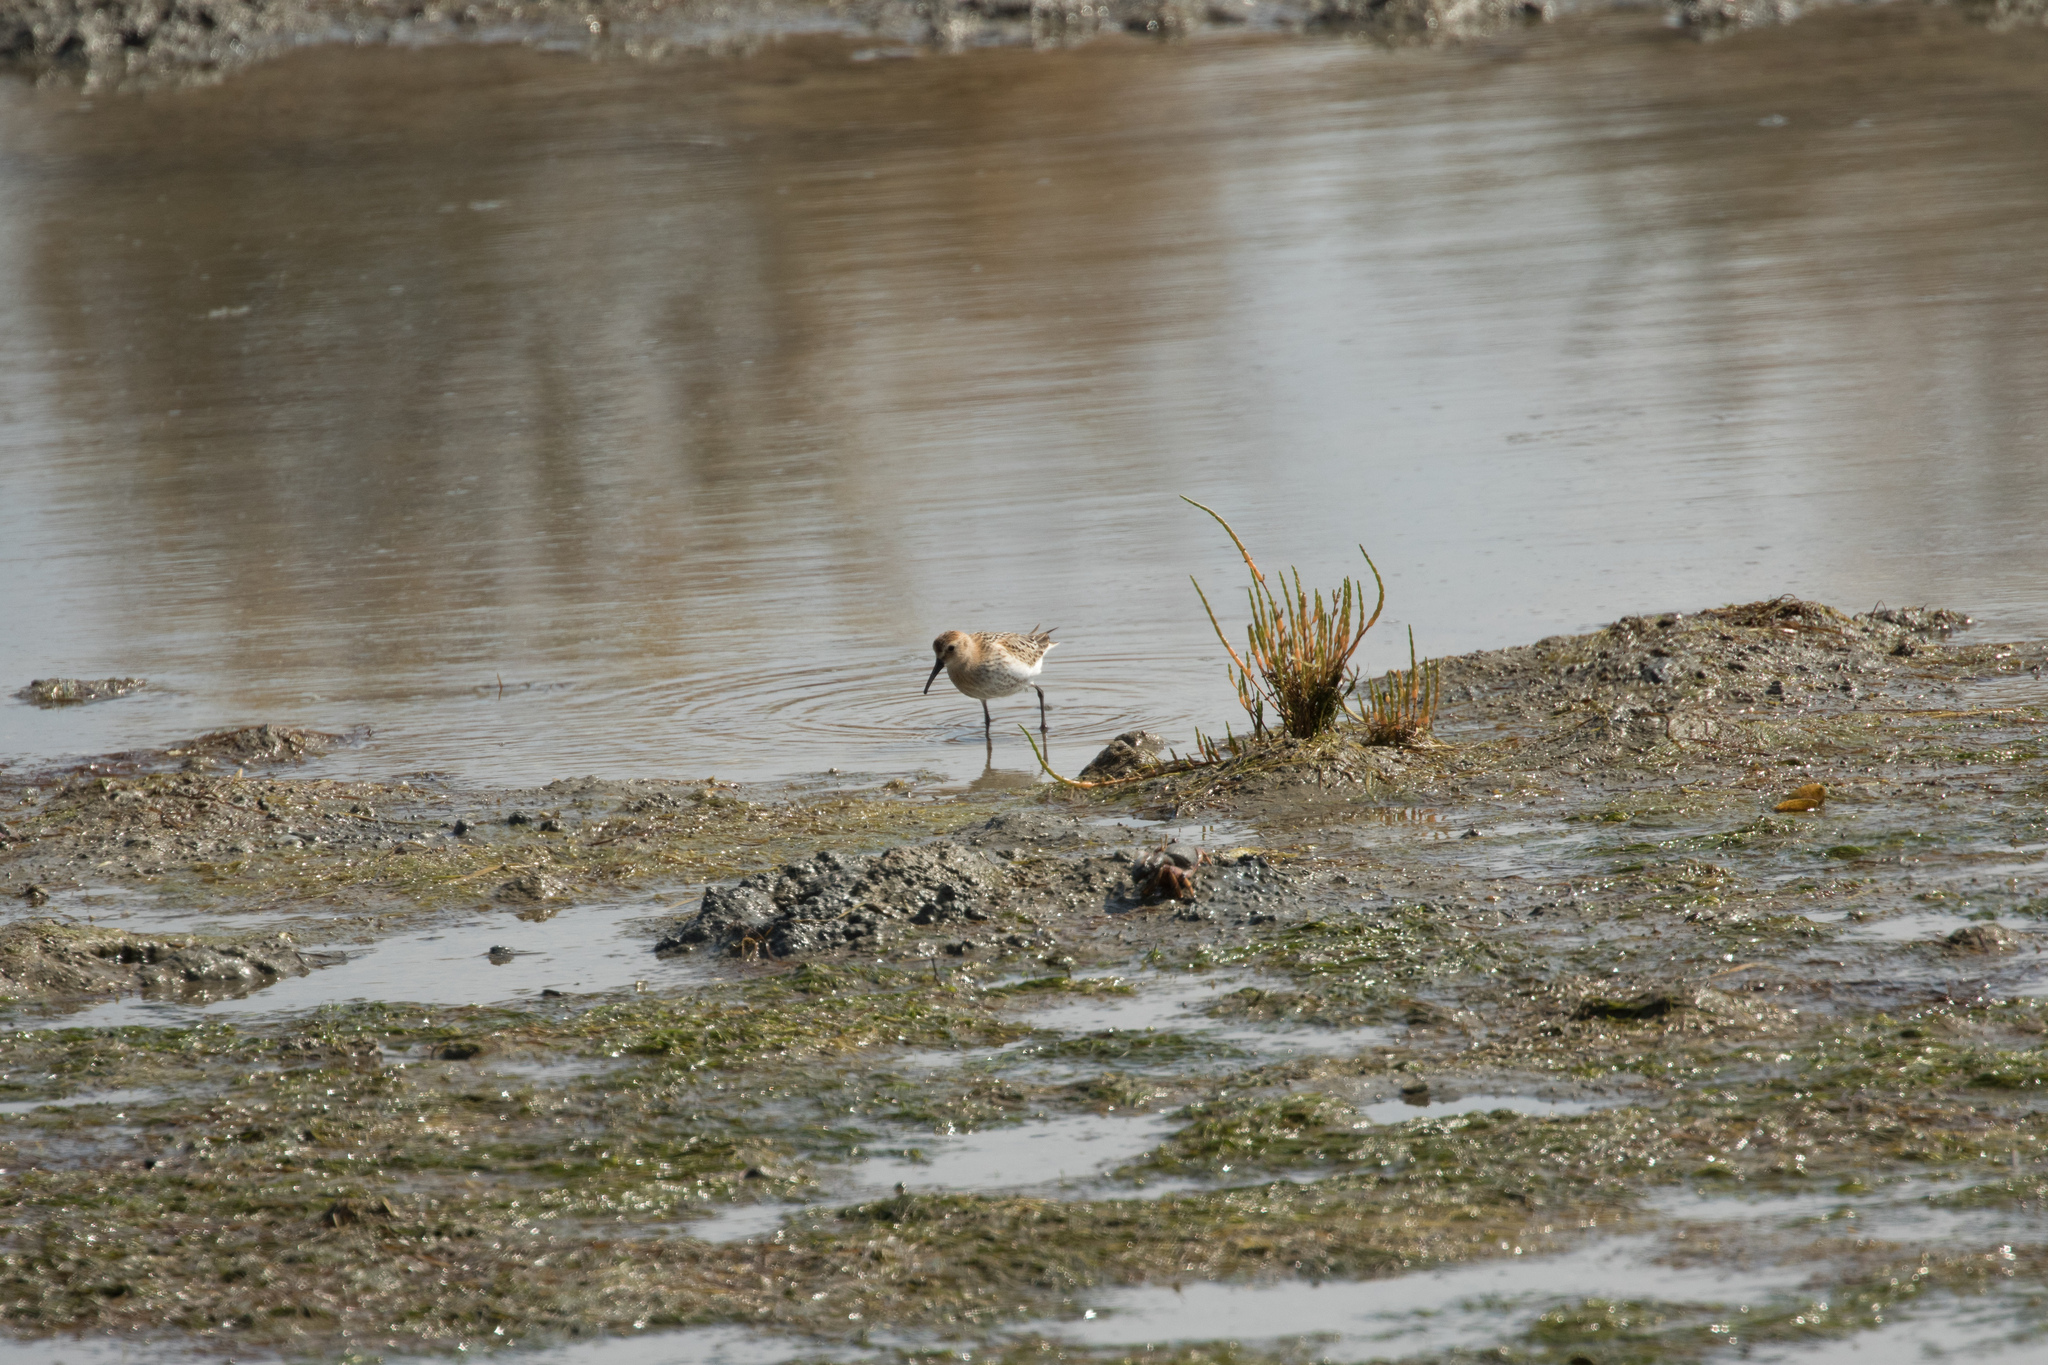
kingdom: Animalia
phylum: Chordata
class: Aves
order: Charadriiformes
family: Scolopacidae
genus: Calidris
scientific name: Calidris alpina
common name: Dunlin
